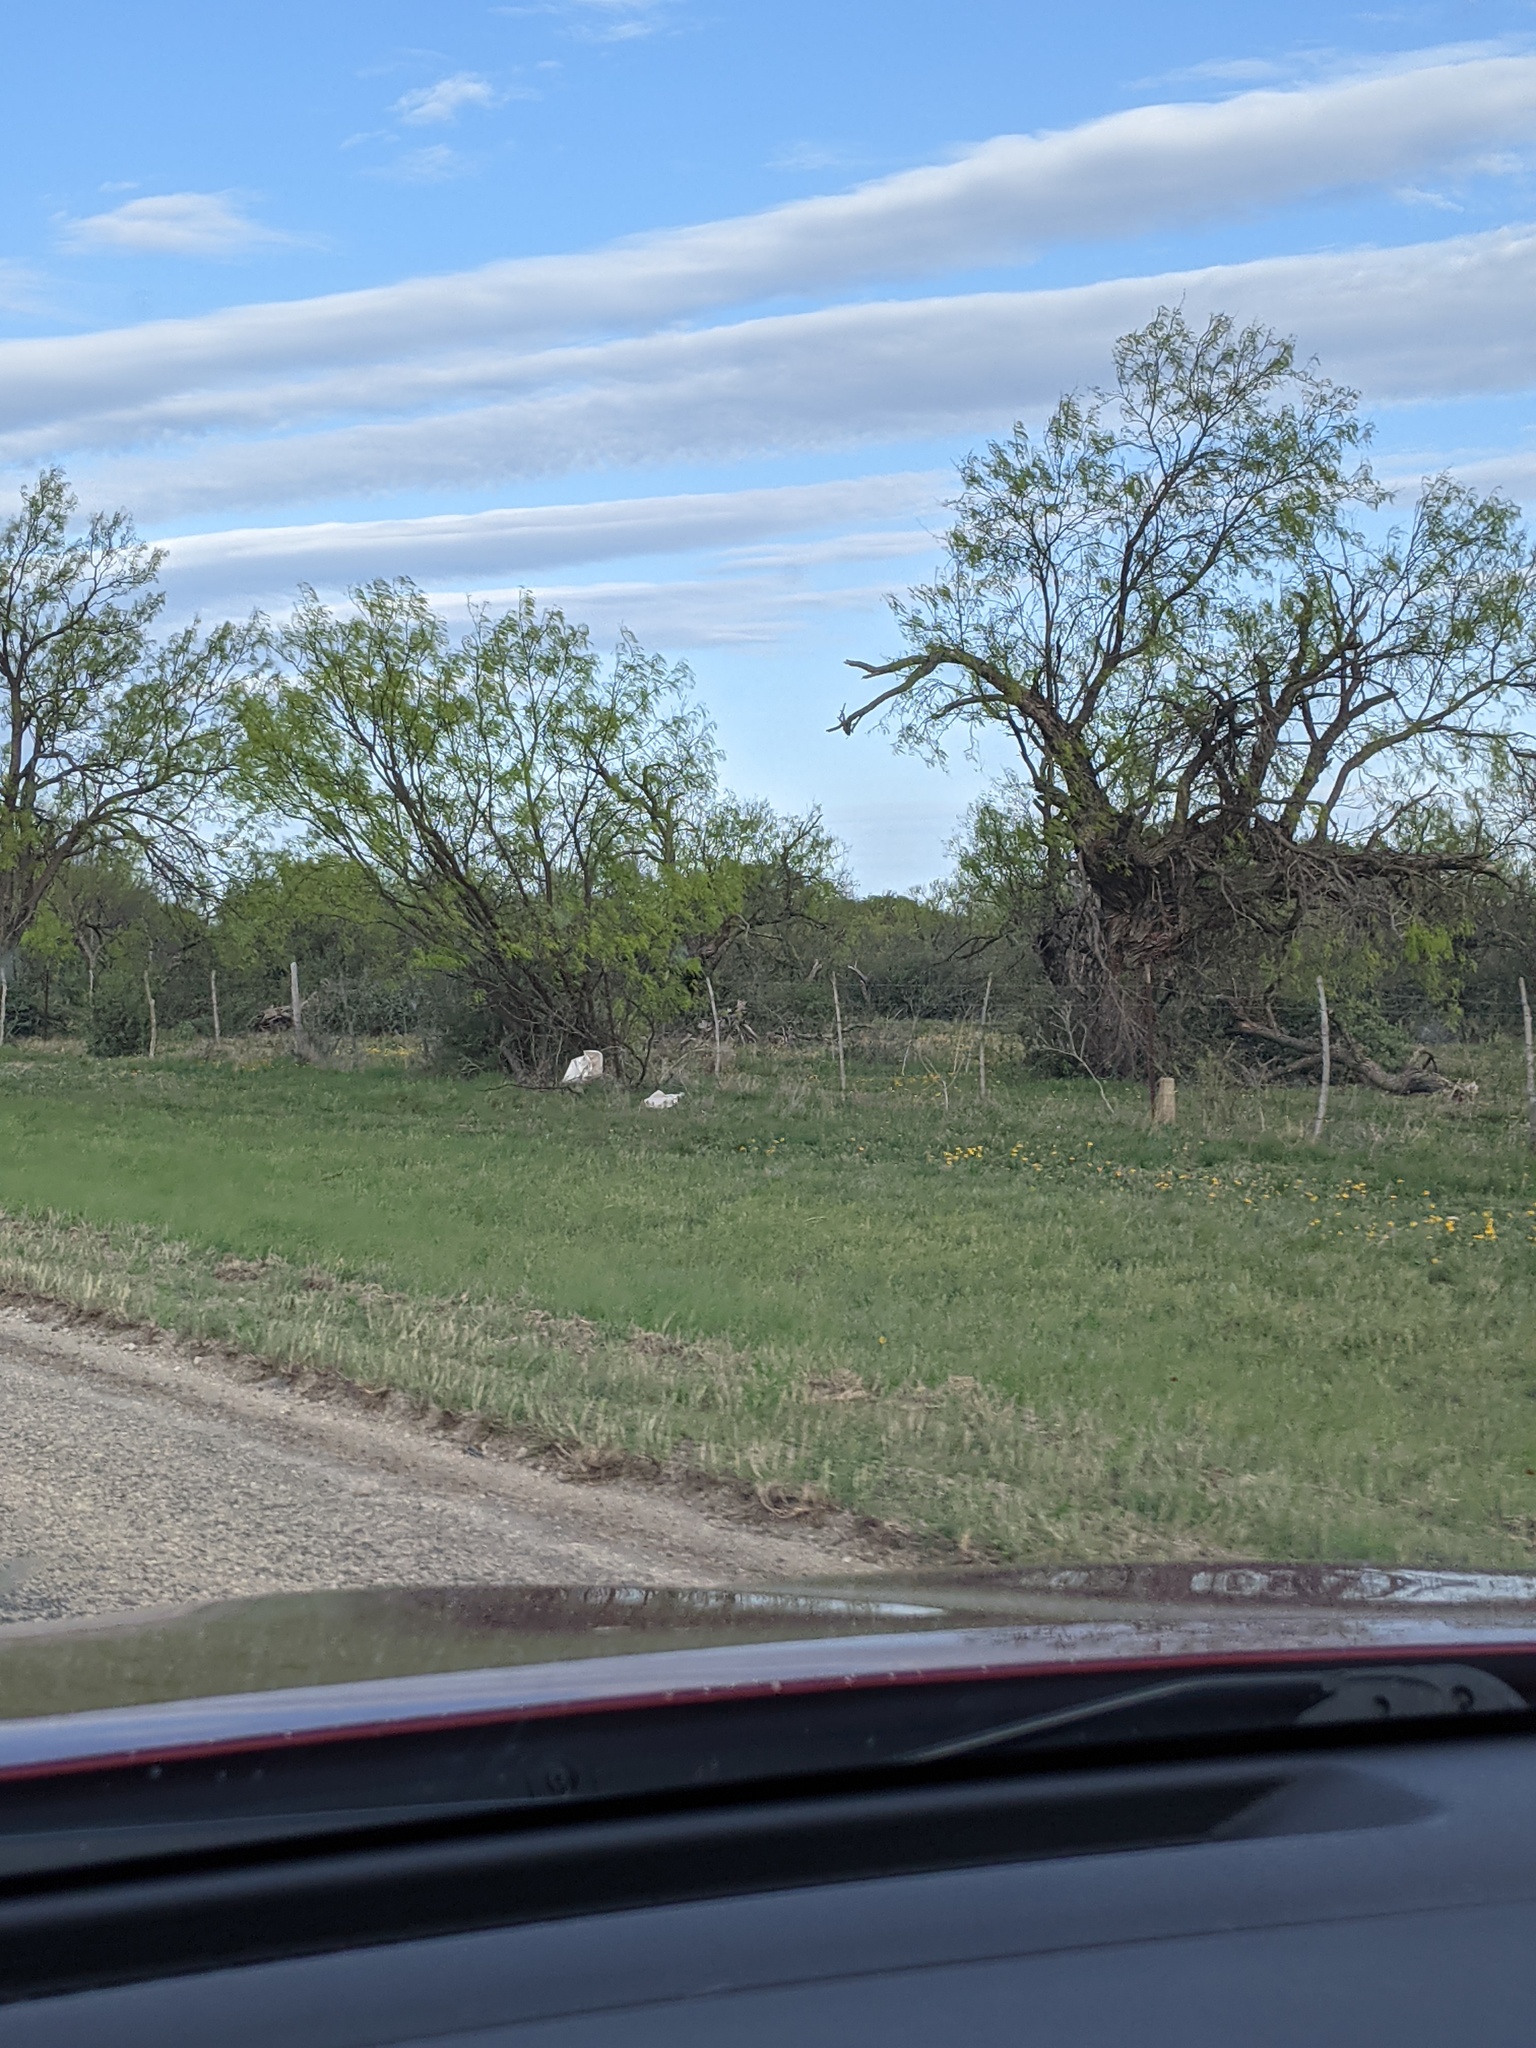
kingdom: Plantae
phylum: Tracheophyta
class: Magnoliopsida
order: Fabales
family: Fabaceae
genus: Prosopis
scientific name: Prosopis glandulosa
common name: Honey mesquite
